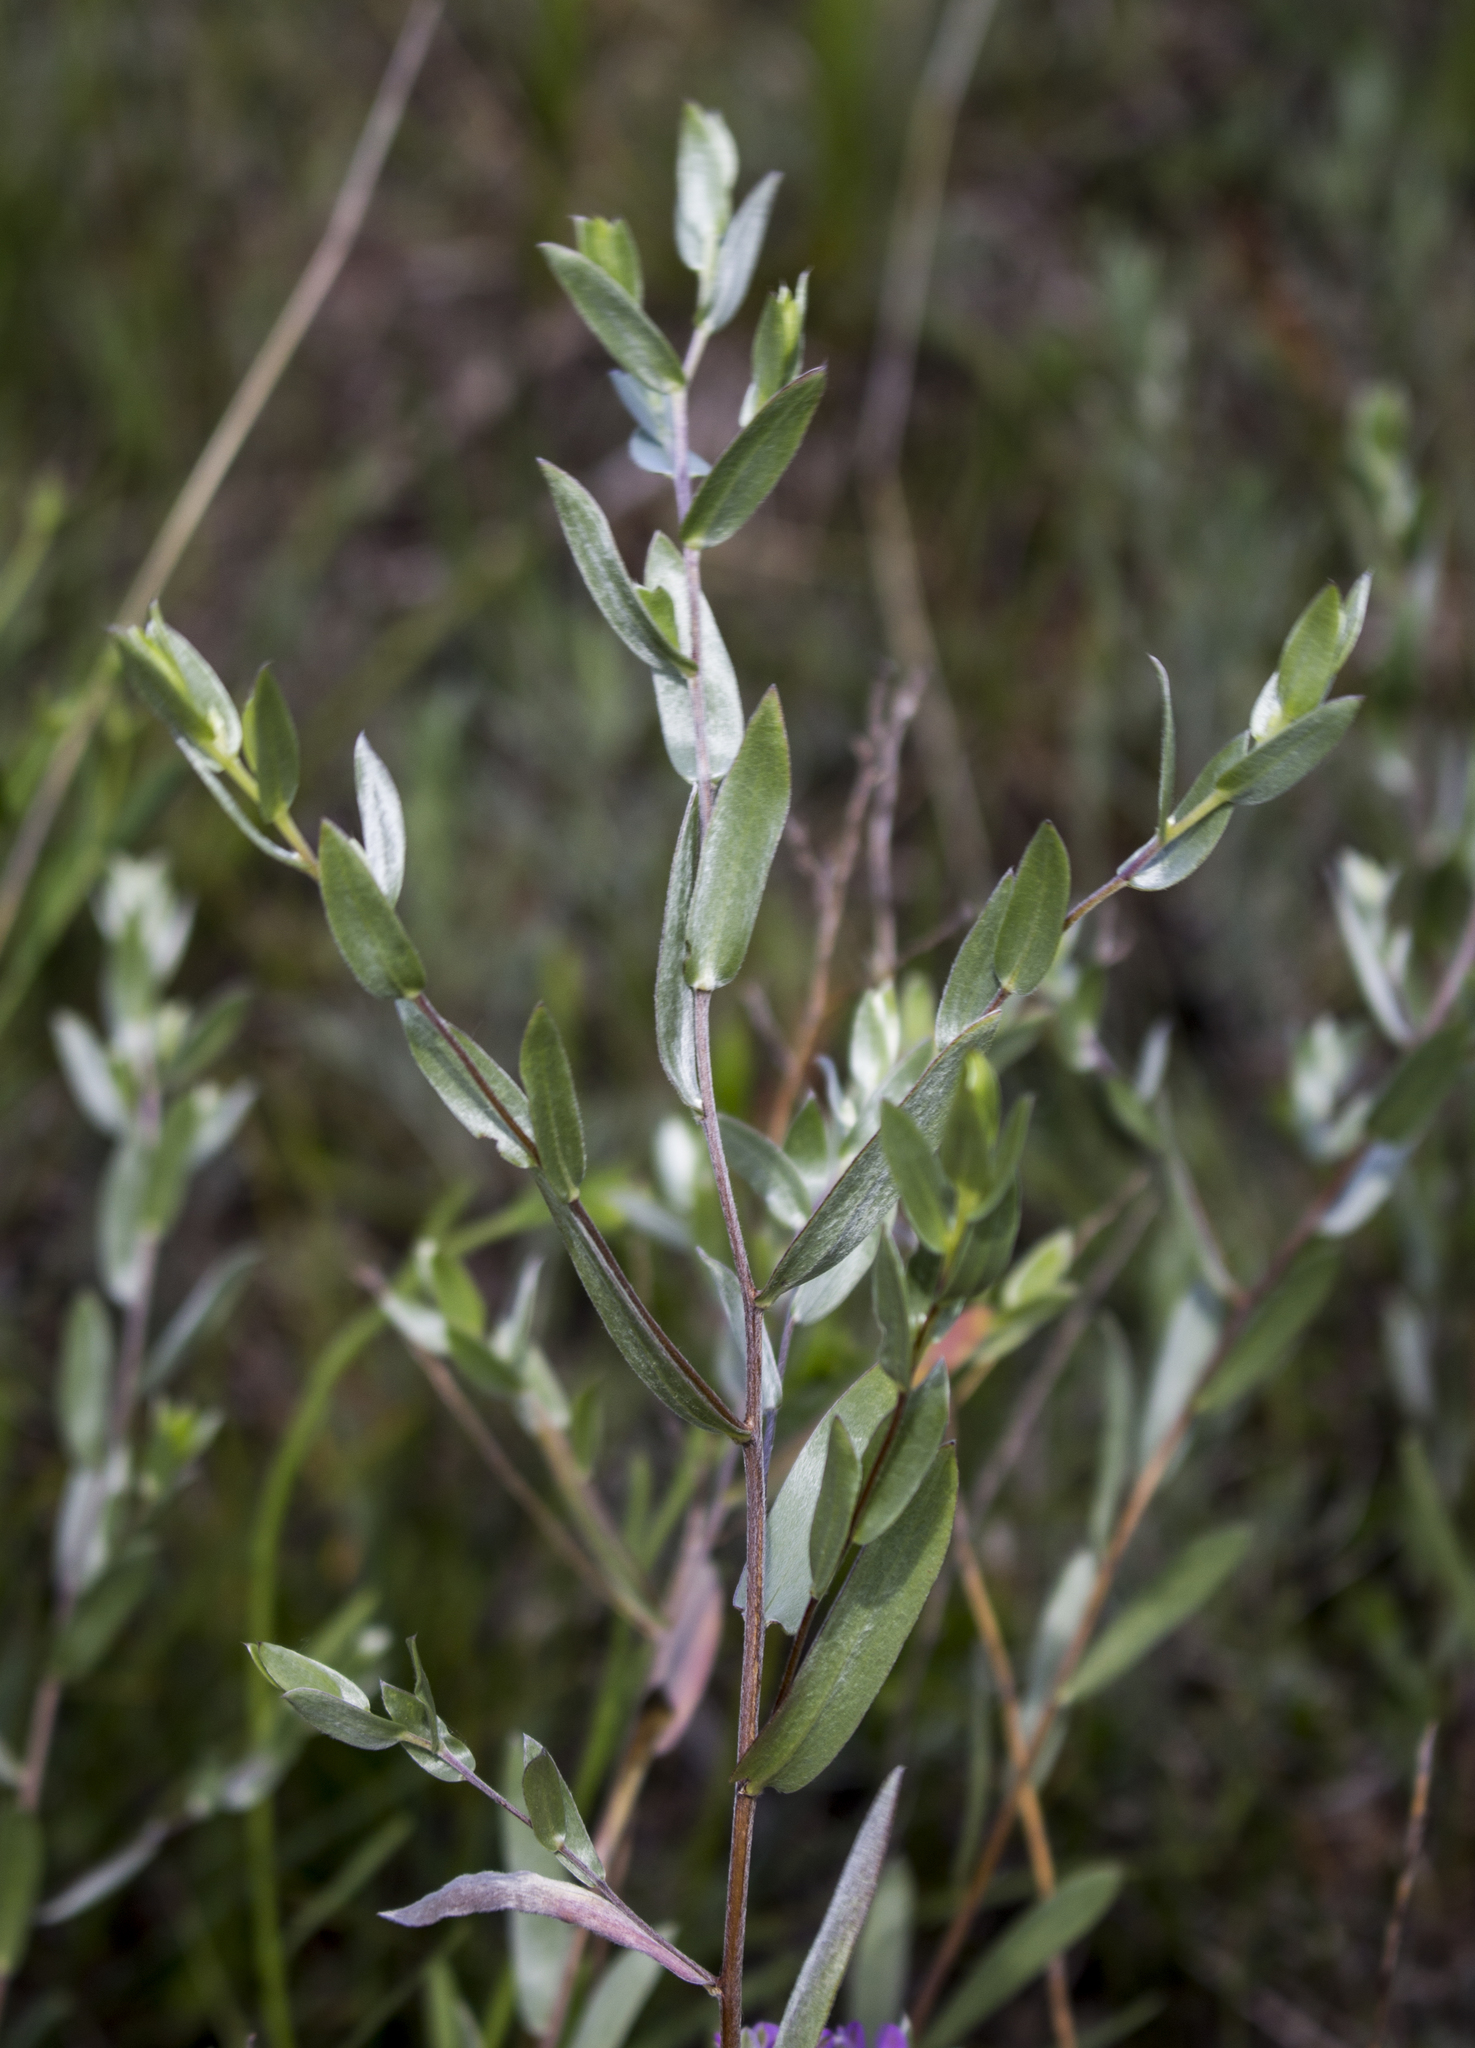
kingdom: Plantae
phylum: Tracheophyta
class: Magnoliopsida
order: Asterales
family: Asteraceae
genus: Symphyotrichum
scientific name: Symphyotrichum sericeum
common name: Silky aster
